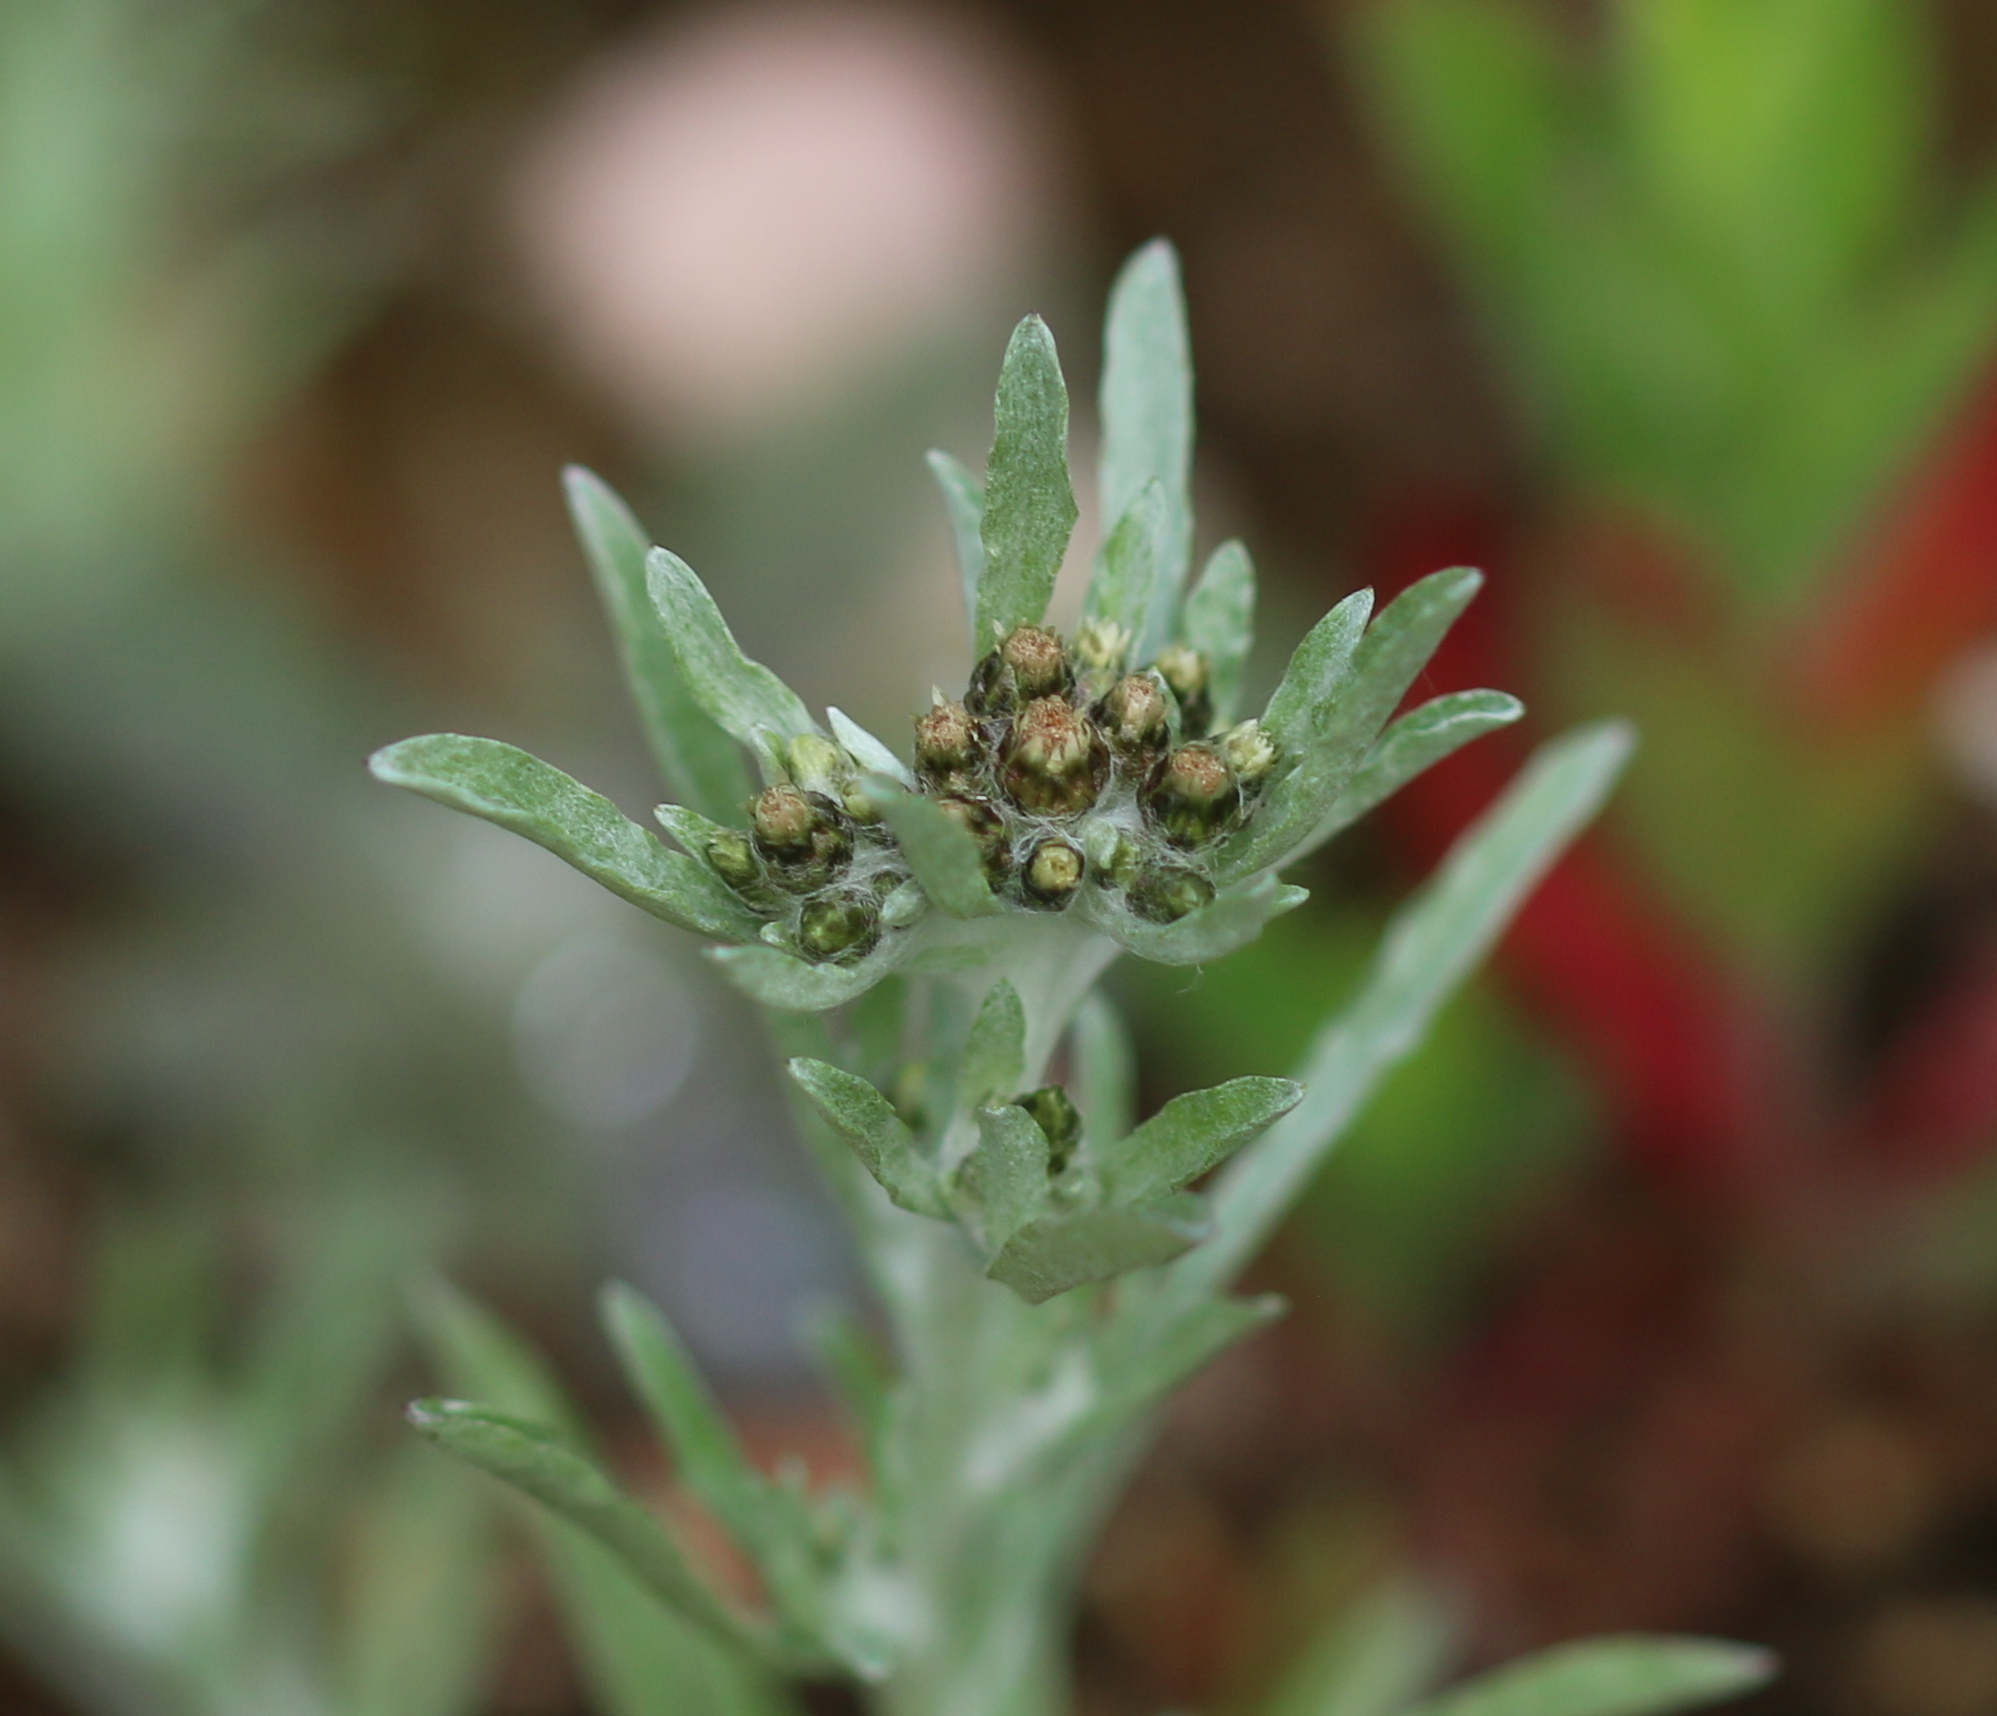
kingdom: Plantae
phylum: Tracheophyta
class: Magnoliopsida
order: Asterales
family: Asteraceae
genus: Gnaphalium
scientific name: Gnaphalium uliginosum
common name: Marsh cudweed
